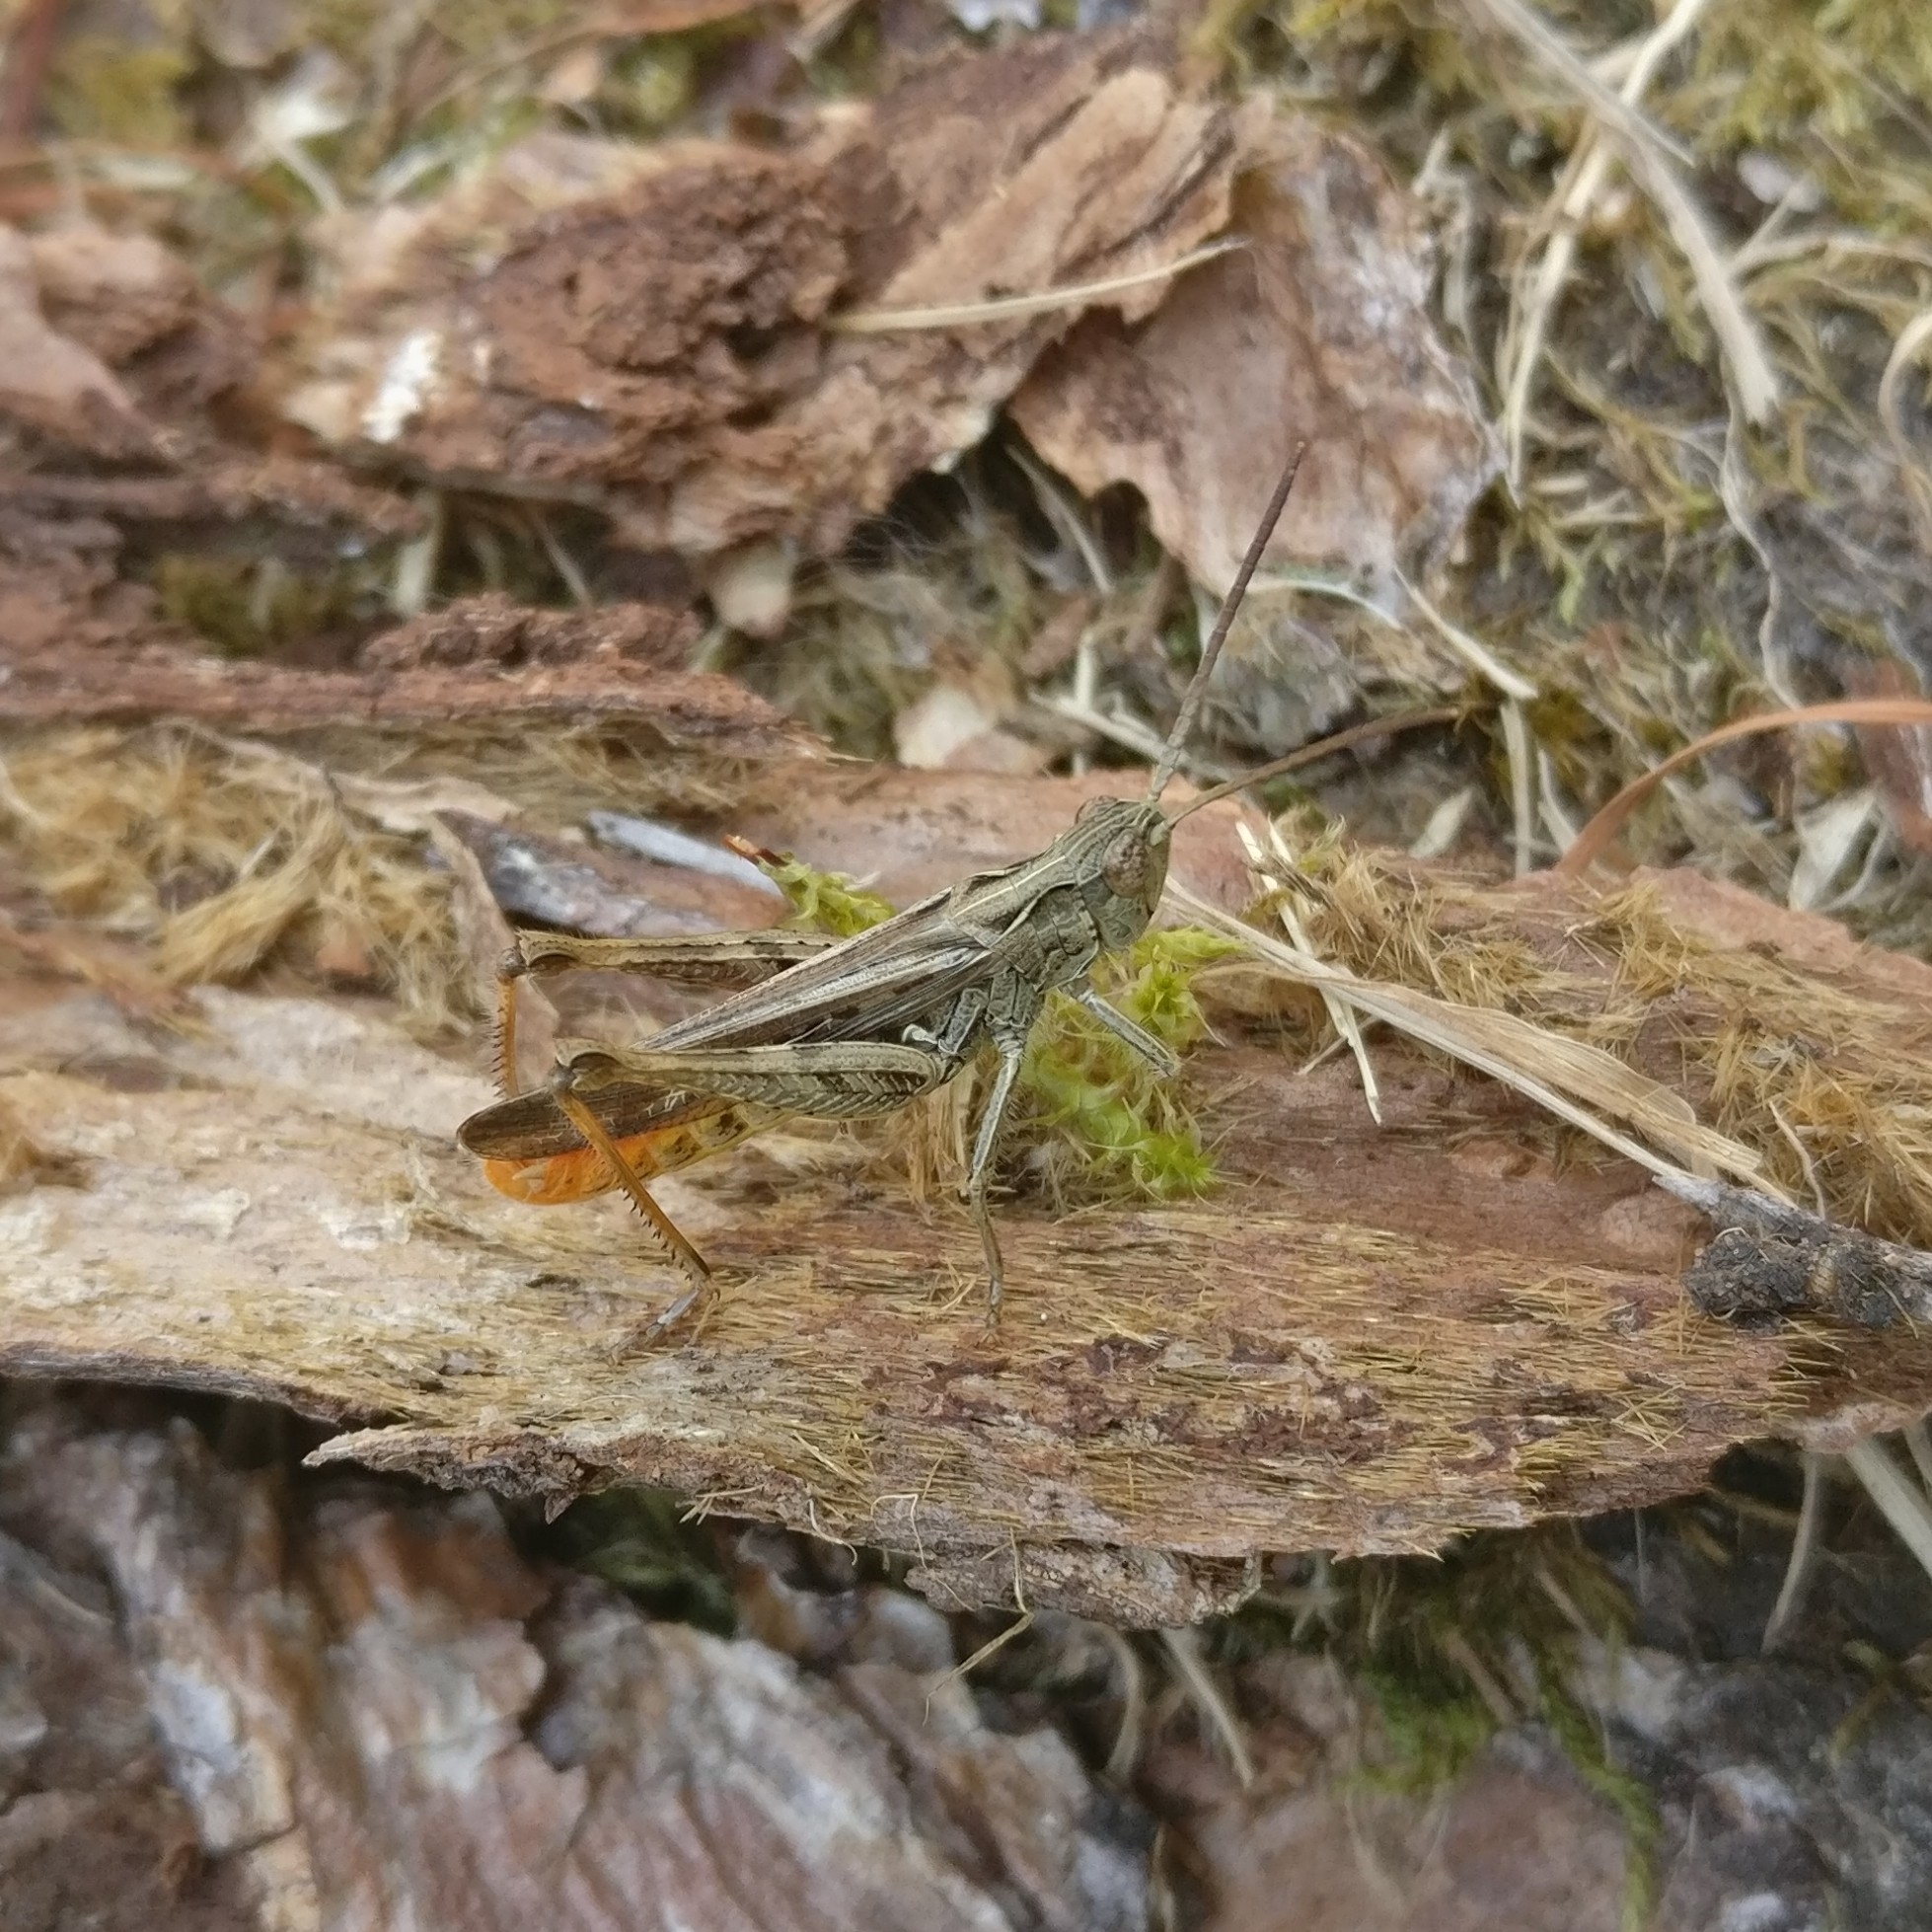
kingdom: Animalia
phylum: Arthropoda
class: Insecta
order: Orthoptera
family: Acrididae
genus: Chorthippus
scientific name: Chorthippus brunneus
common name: Field grasshopper
